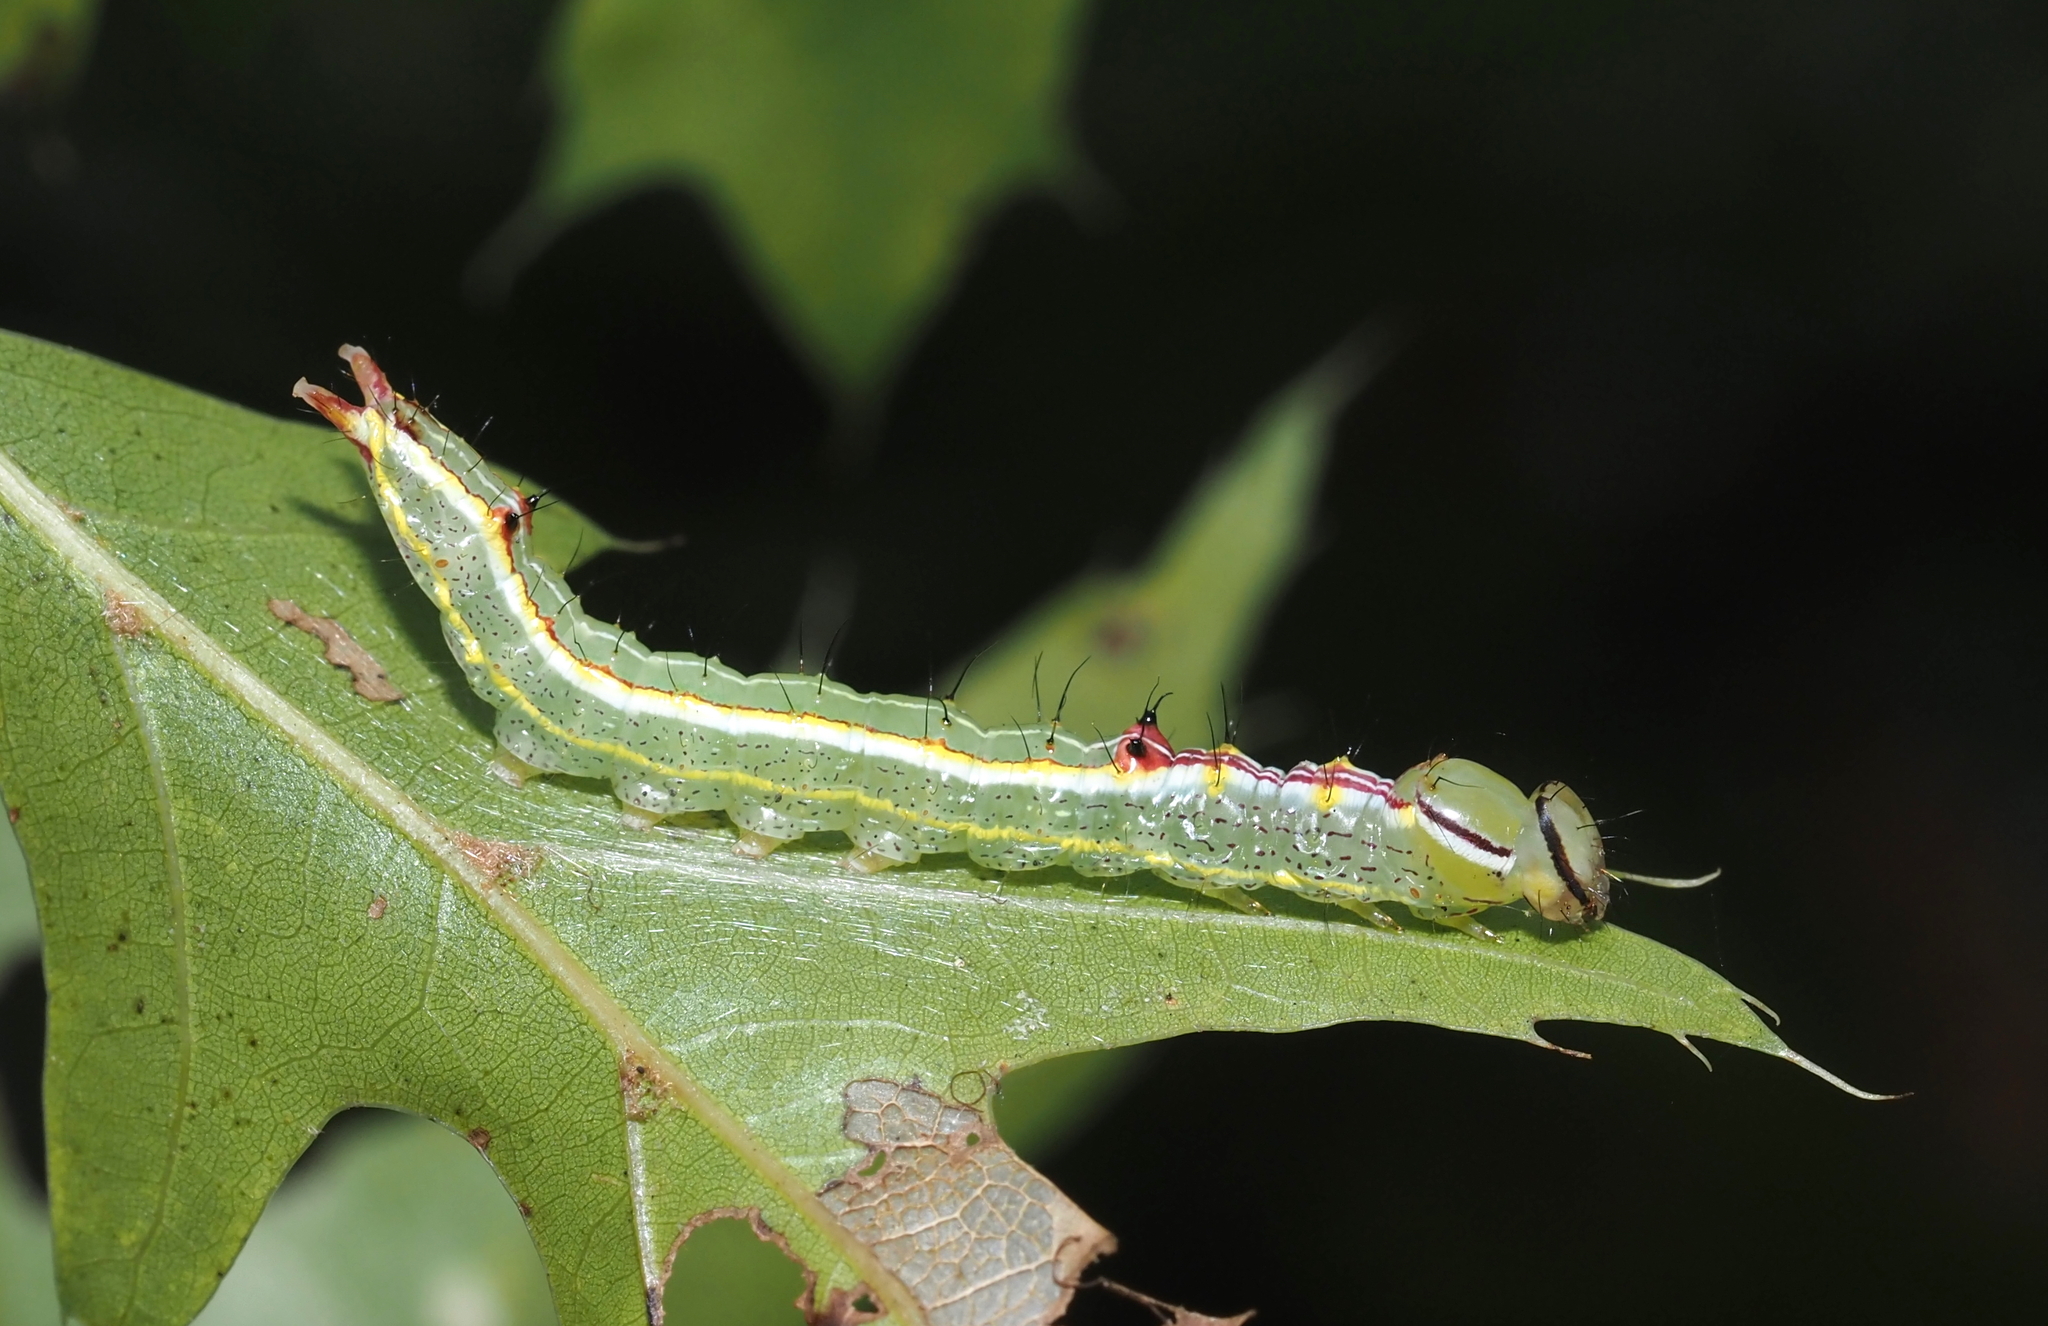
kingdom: Animalia
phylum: Arthropoda
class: Insecta
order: Lepidoptera
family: Notodontidae
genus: Lochmaeus
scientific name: Lochmaeus manteo
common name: Variable oakleaf caterpillar moth
